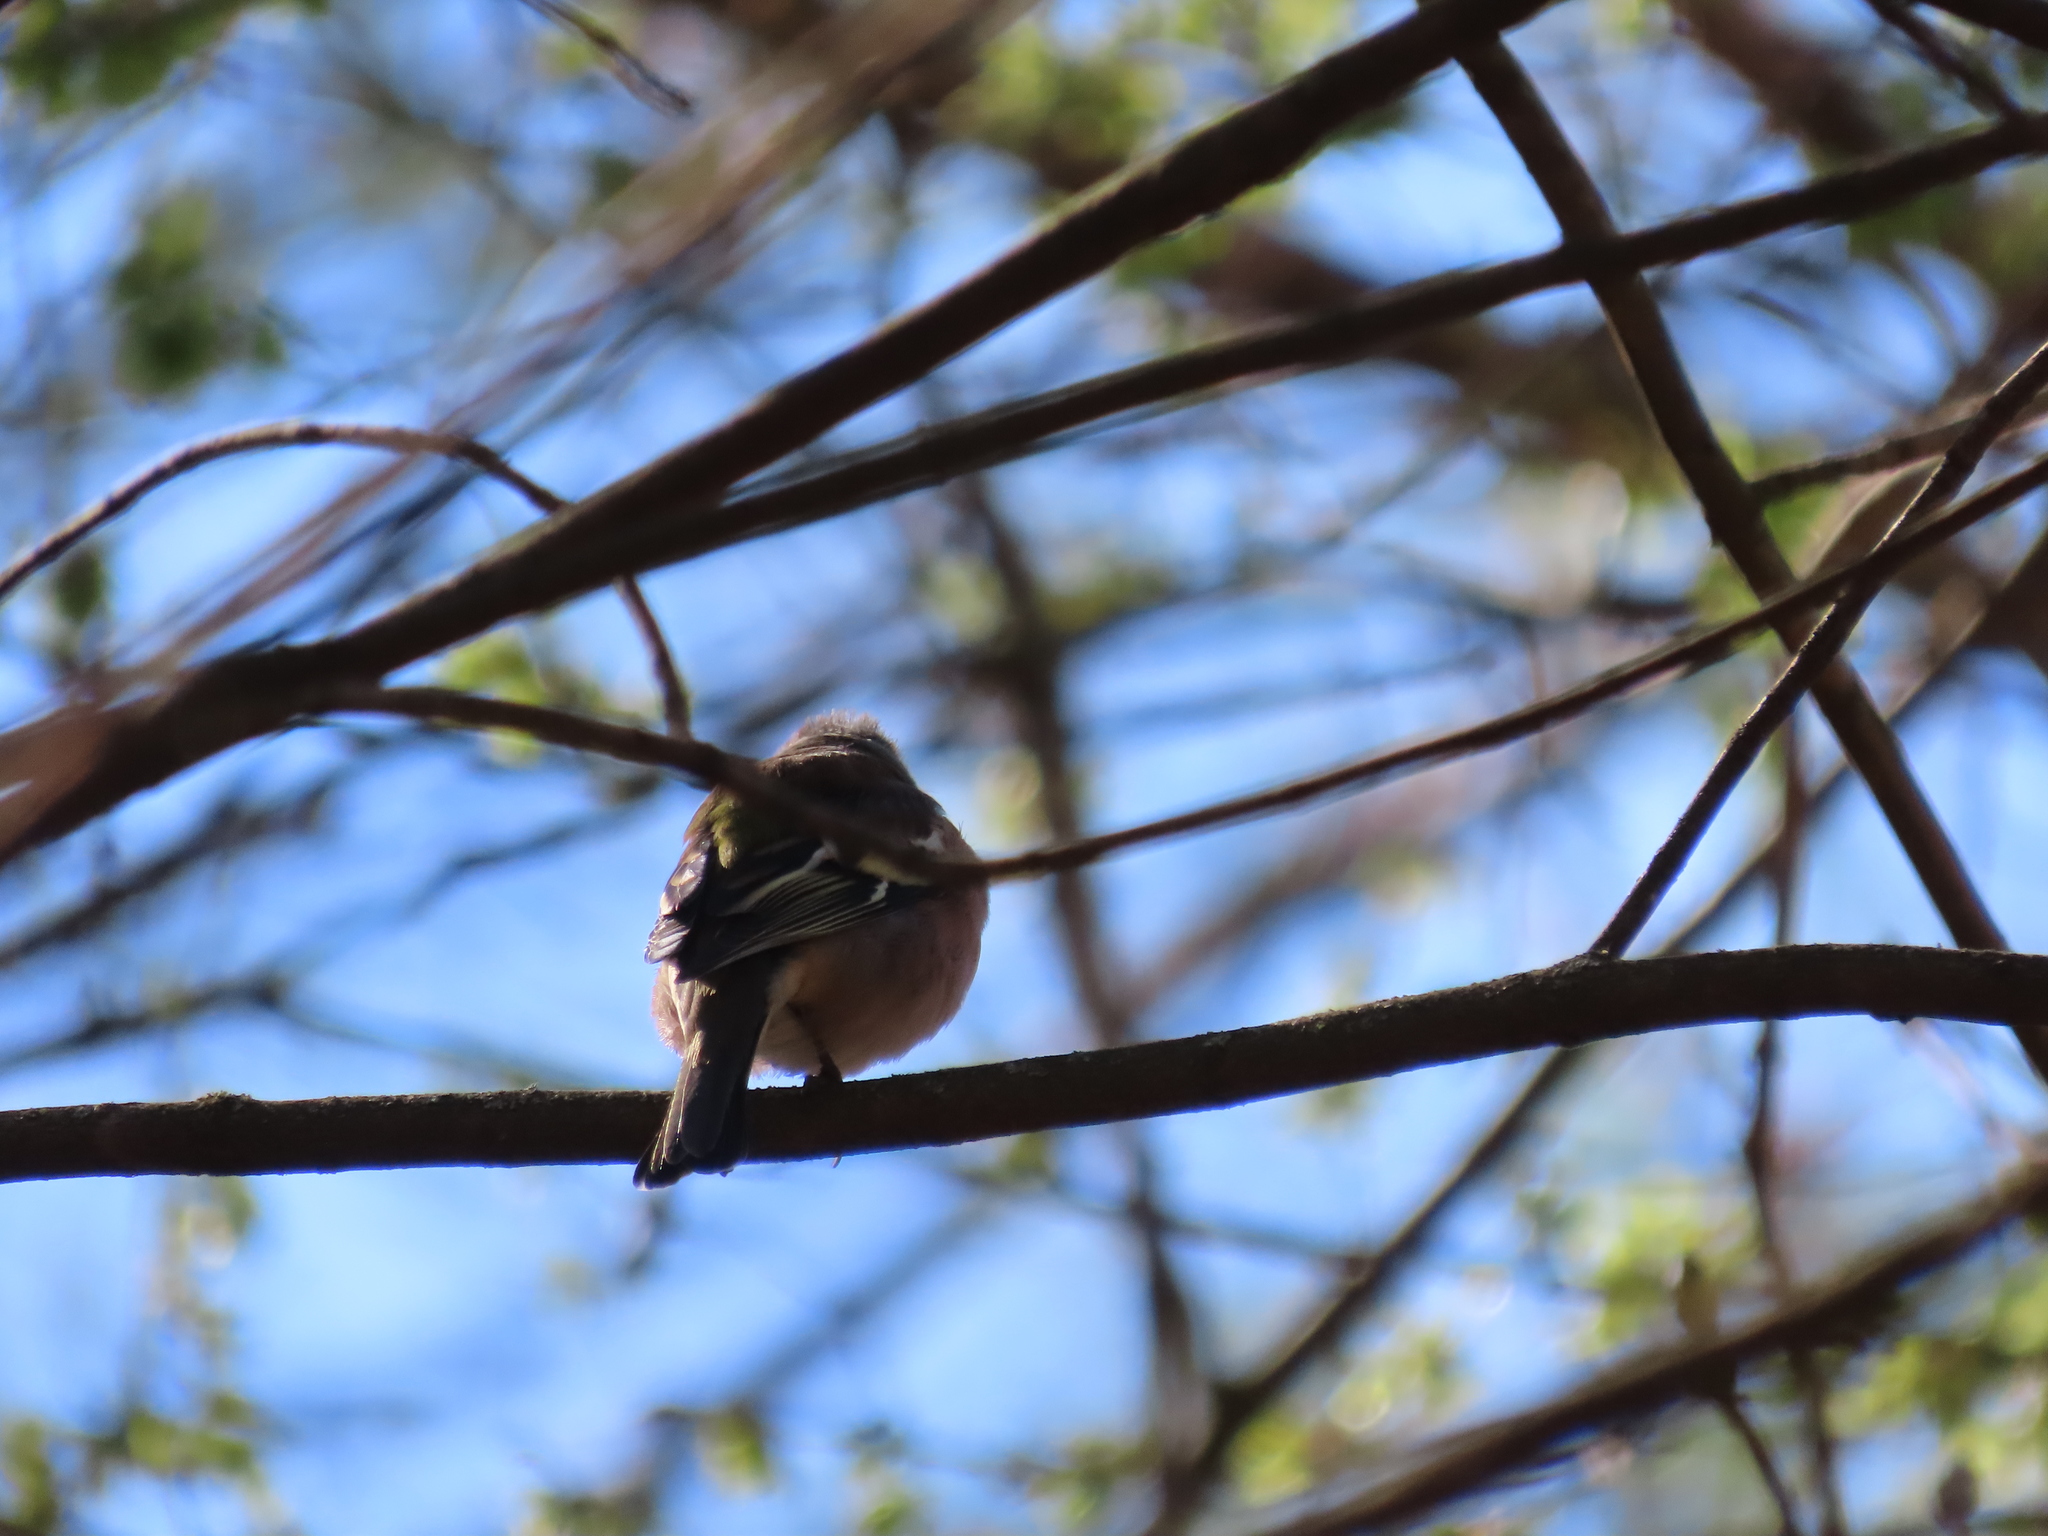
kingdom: Animalia
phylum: Chordata
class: Aves
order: Passeriformes
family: Fringillidae
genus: Fringilla
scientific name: Fringilla coelebs
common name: Common chaffinch
